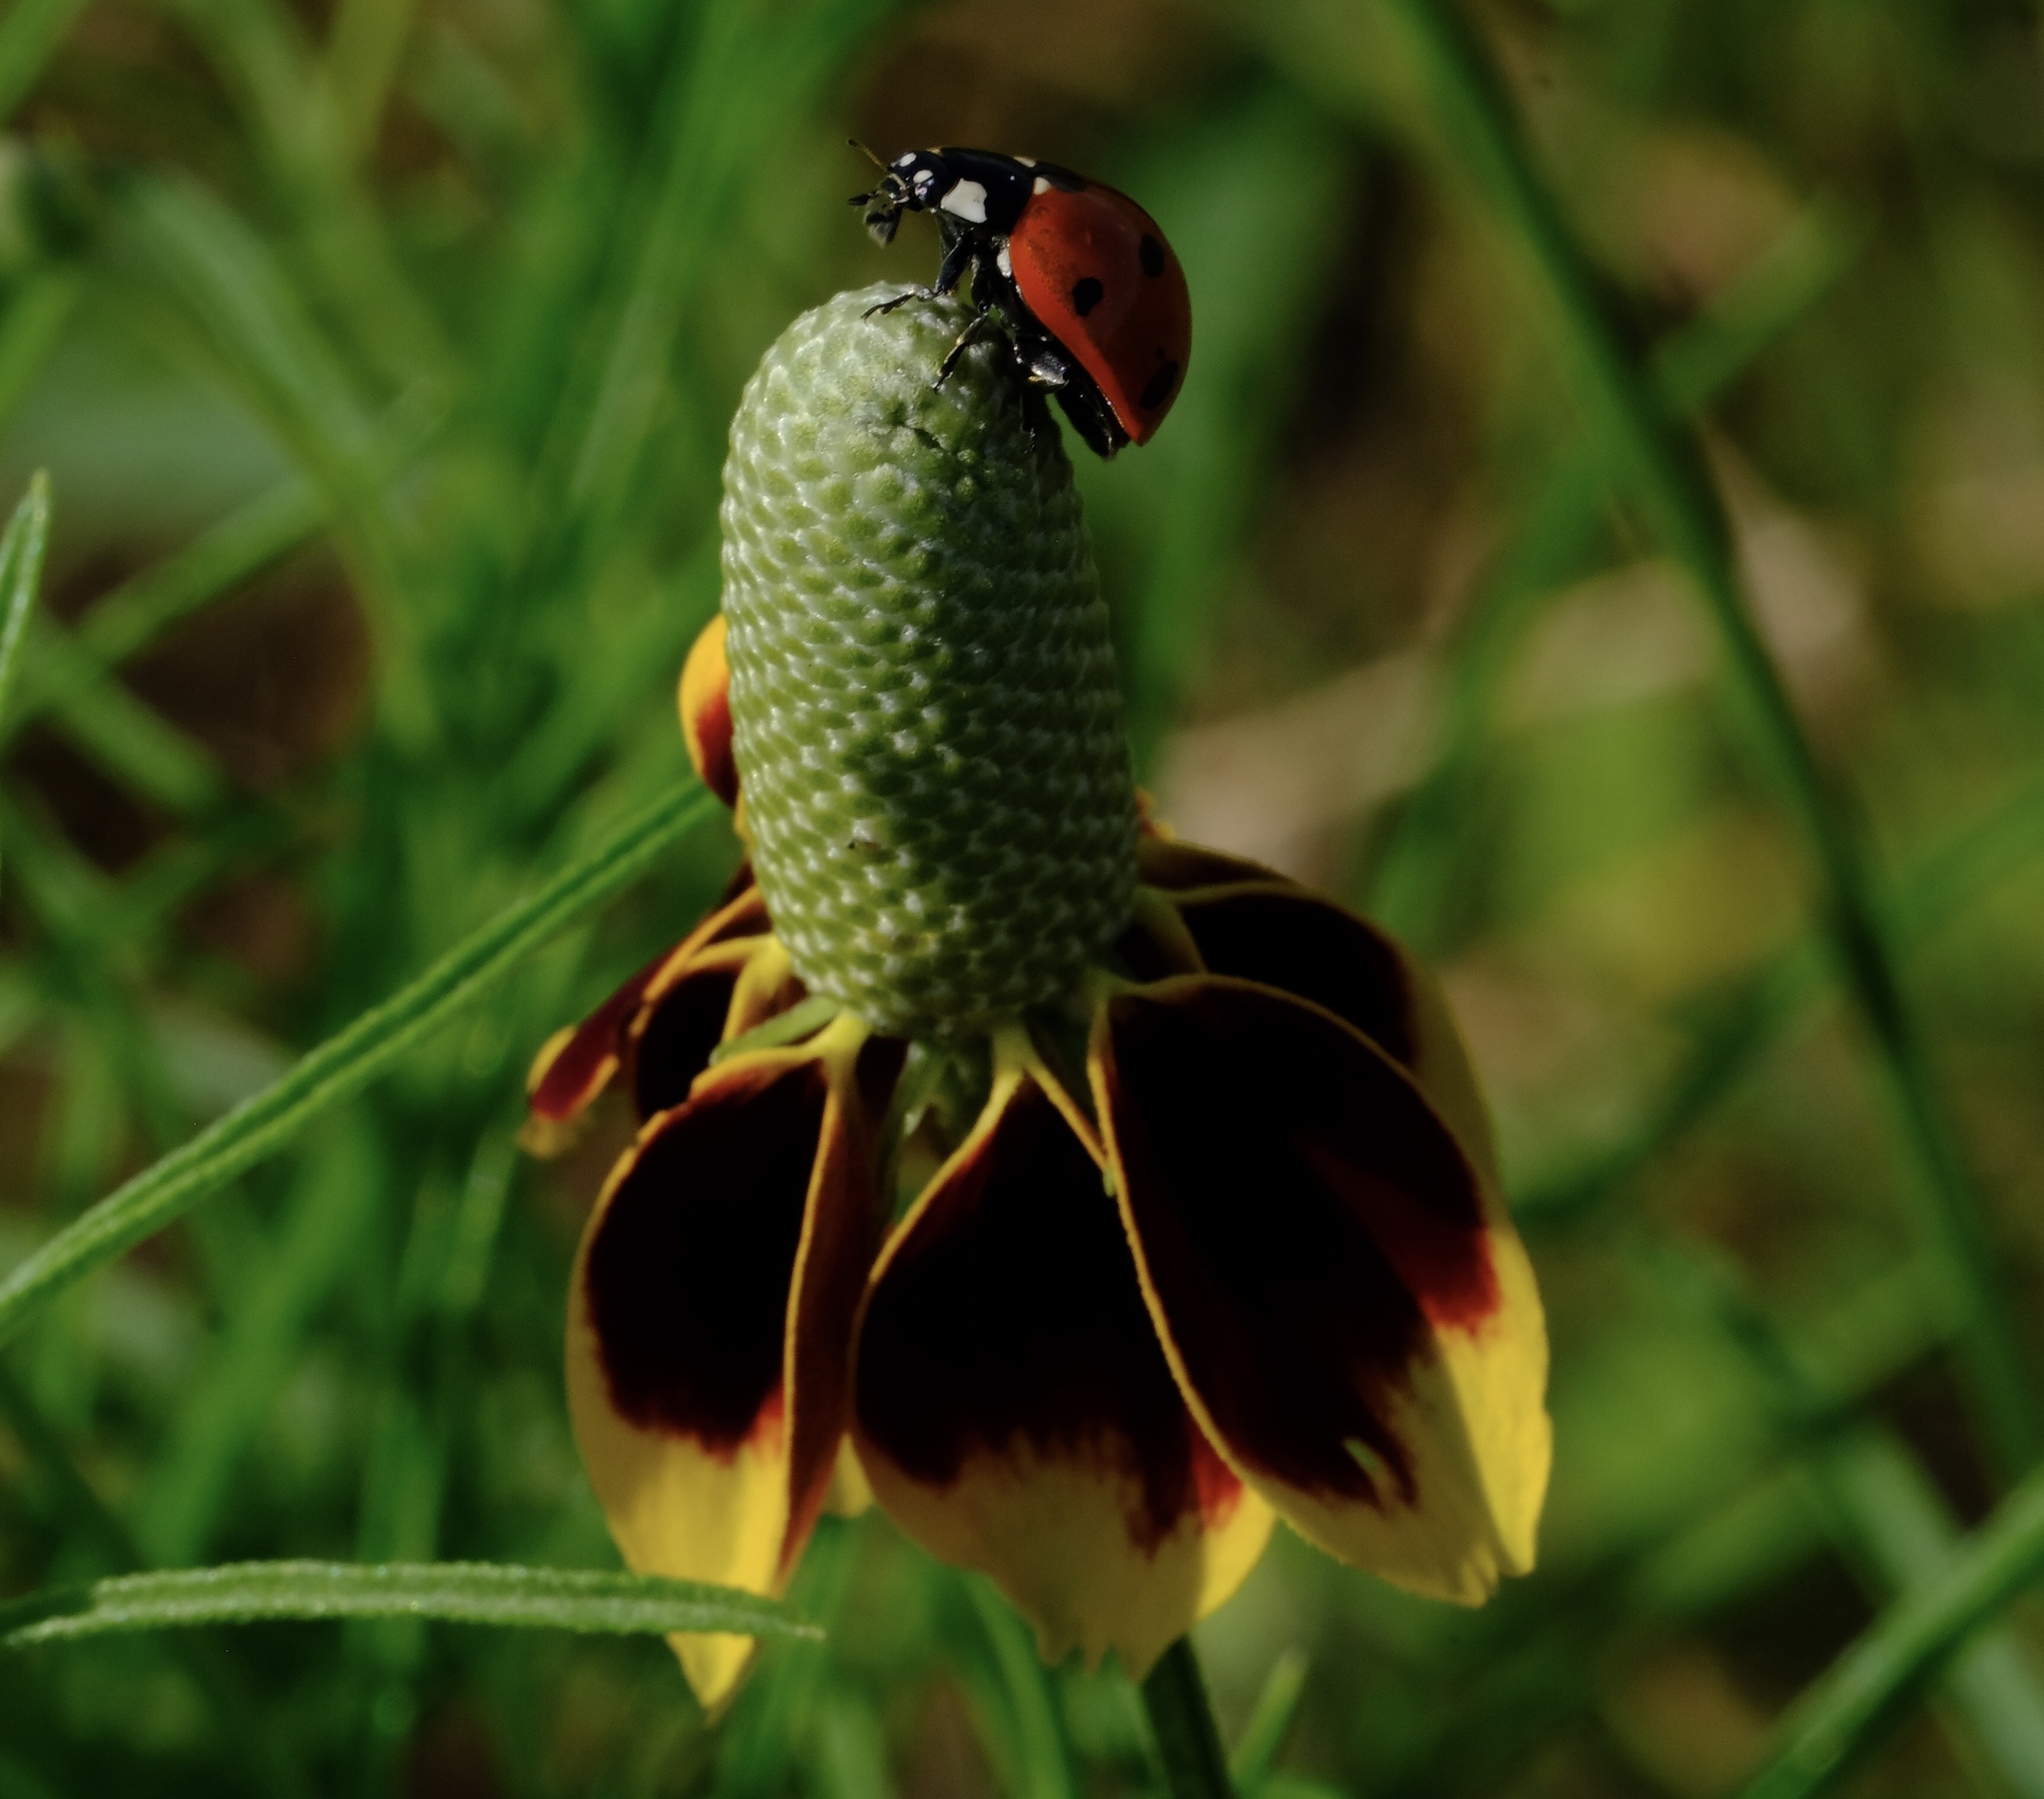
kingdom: Animalia
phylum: Arthropoda
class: Insecta
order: Coleoptera
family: Coccinellidae
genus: Coccinella
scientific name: Coccinella septempunctata
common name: Sevenspotted lady beetle
